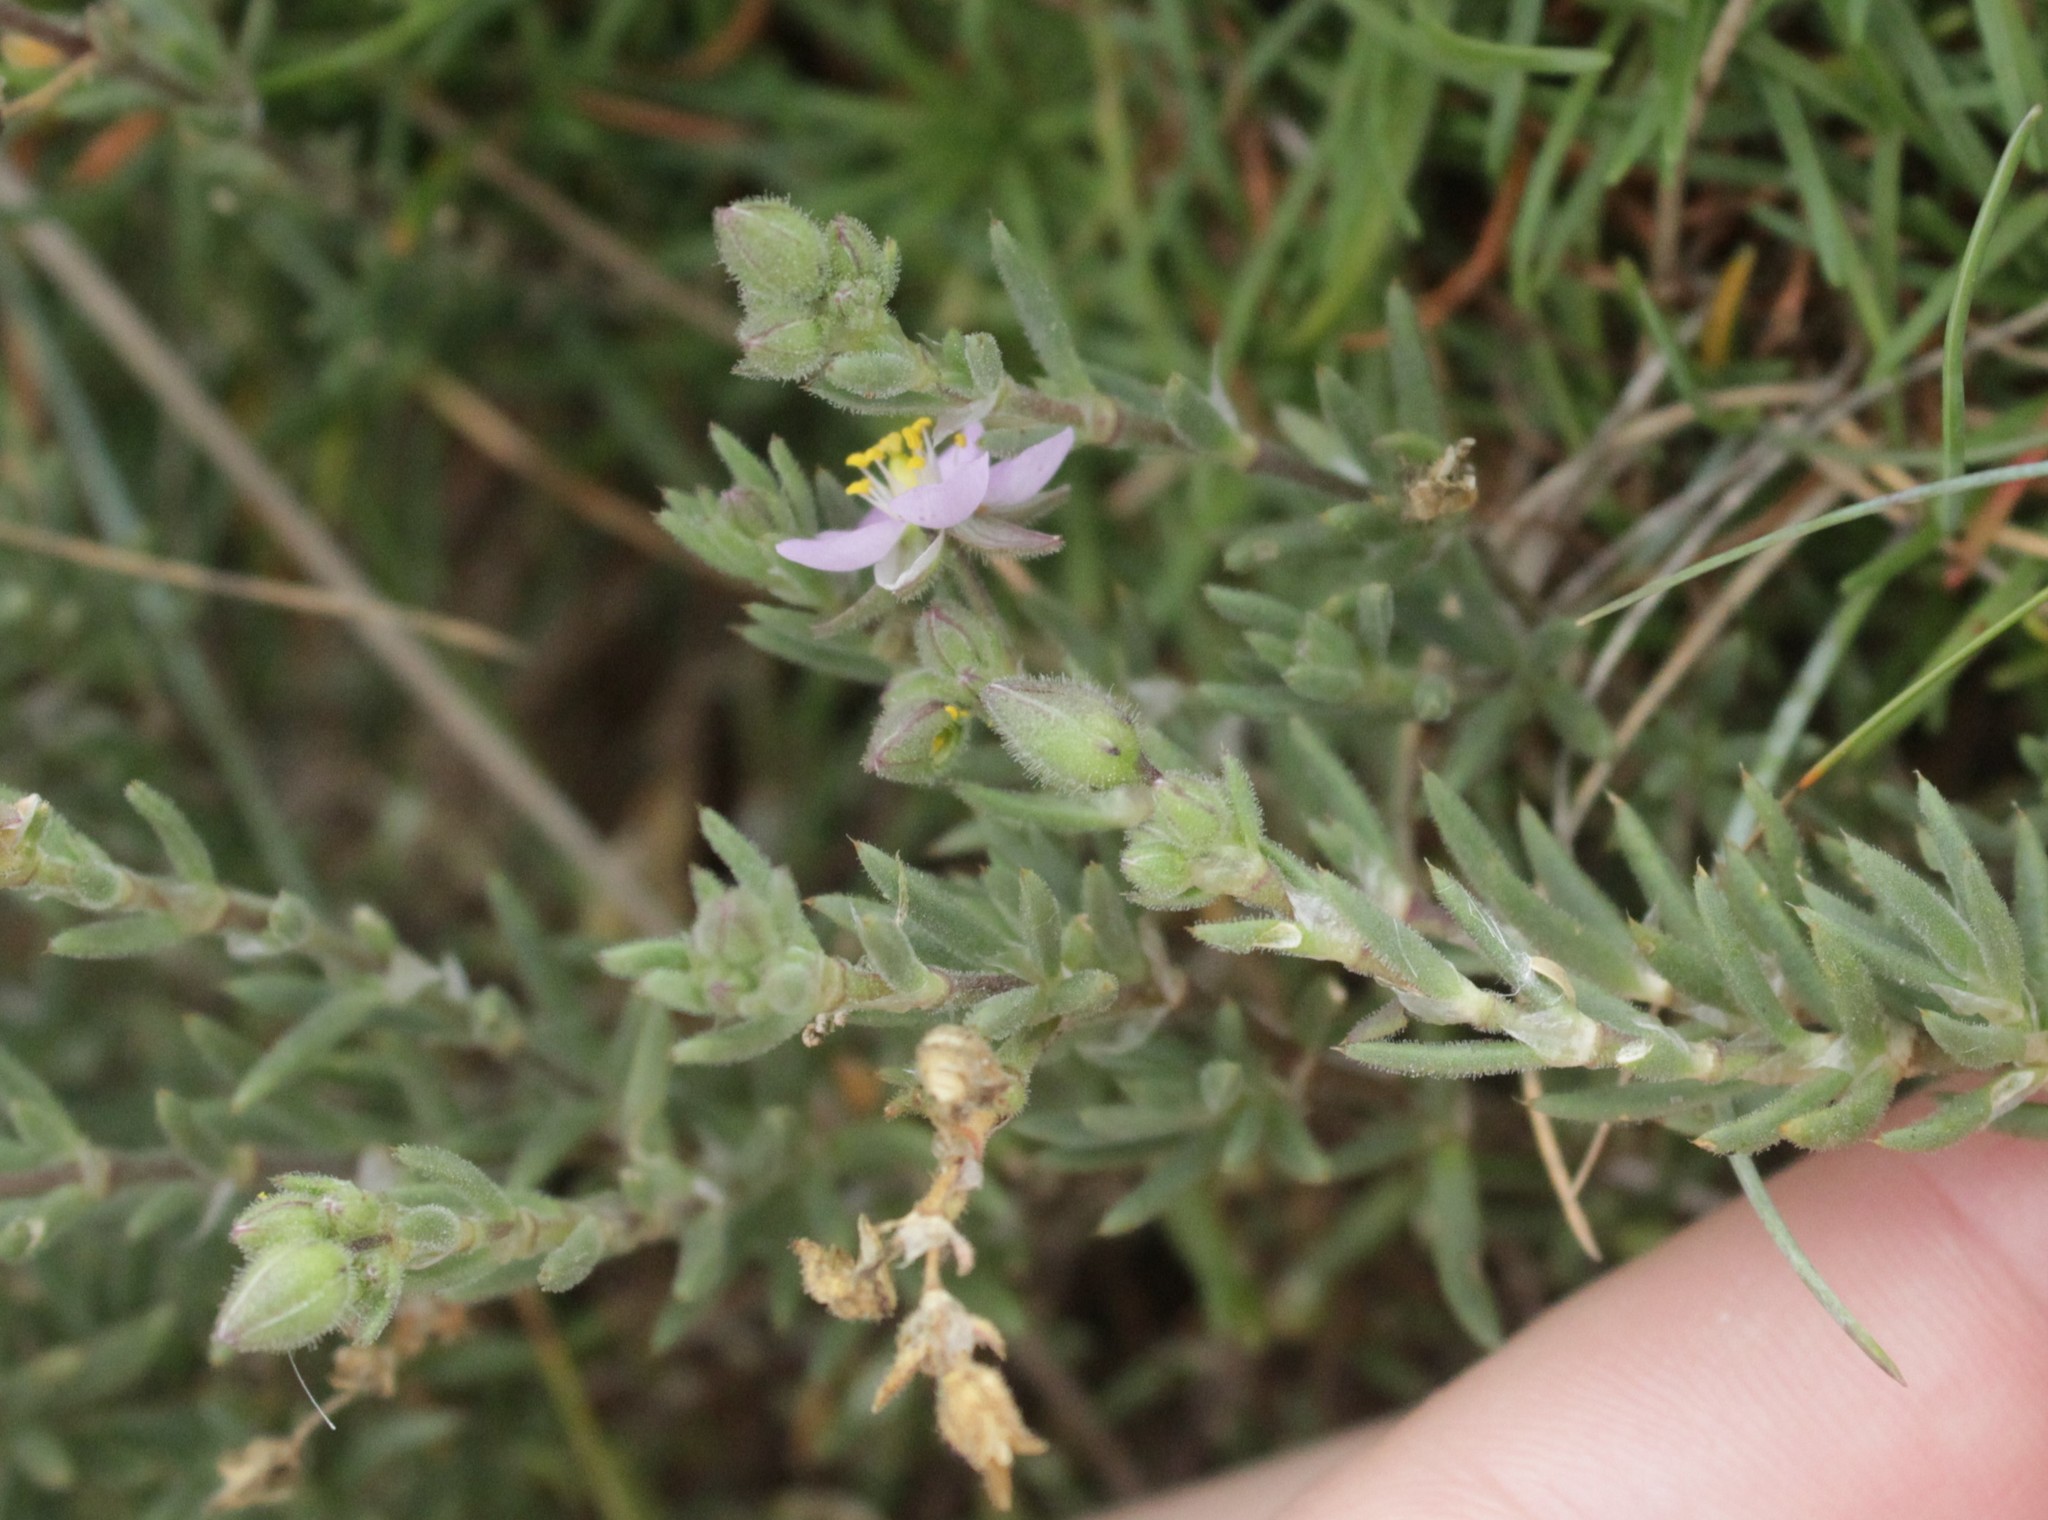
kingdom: Plantae
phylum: Tracheophyta
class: Magnoliopsida
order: Caryophyllales
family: Caryophyllaceae
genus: Spergularia
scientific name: Spergularia rupicola
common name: Cliff sand-spurrey
